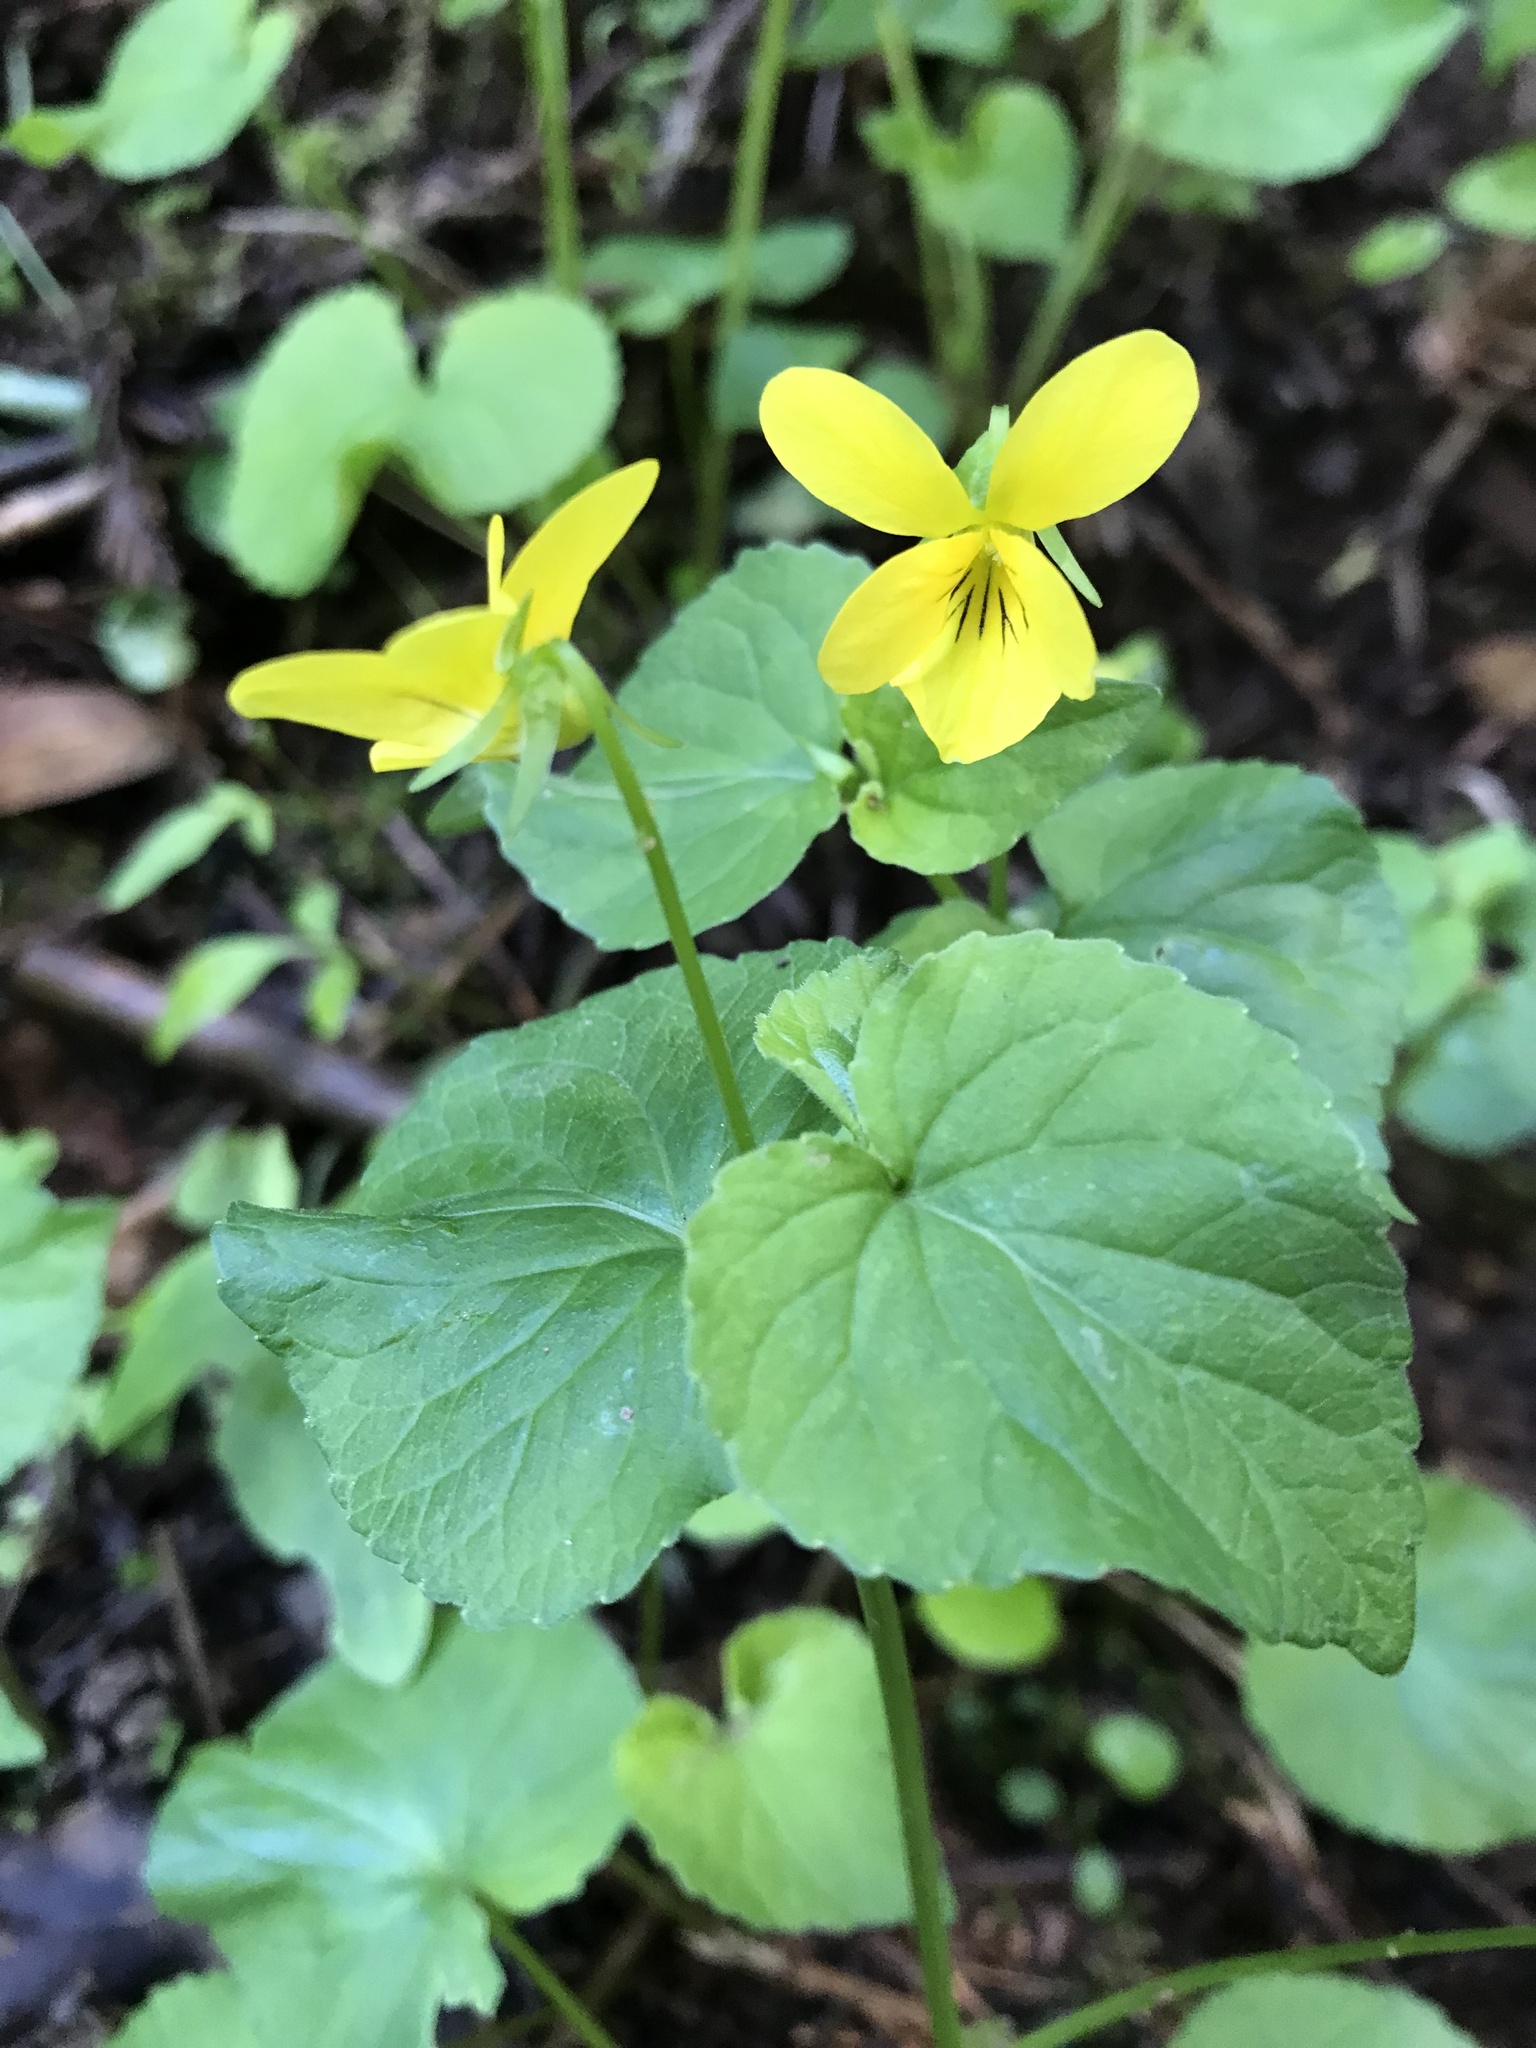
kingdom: Plantae
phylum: Tracheophyta
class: Magnoliopsida
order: Malpighiales
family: Violaceae
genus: Viola
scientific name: Viola glabella
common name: Stream violet
